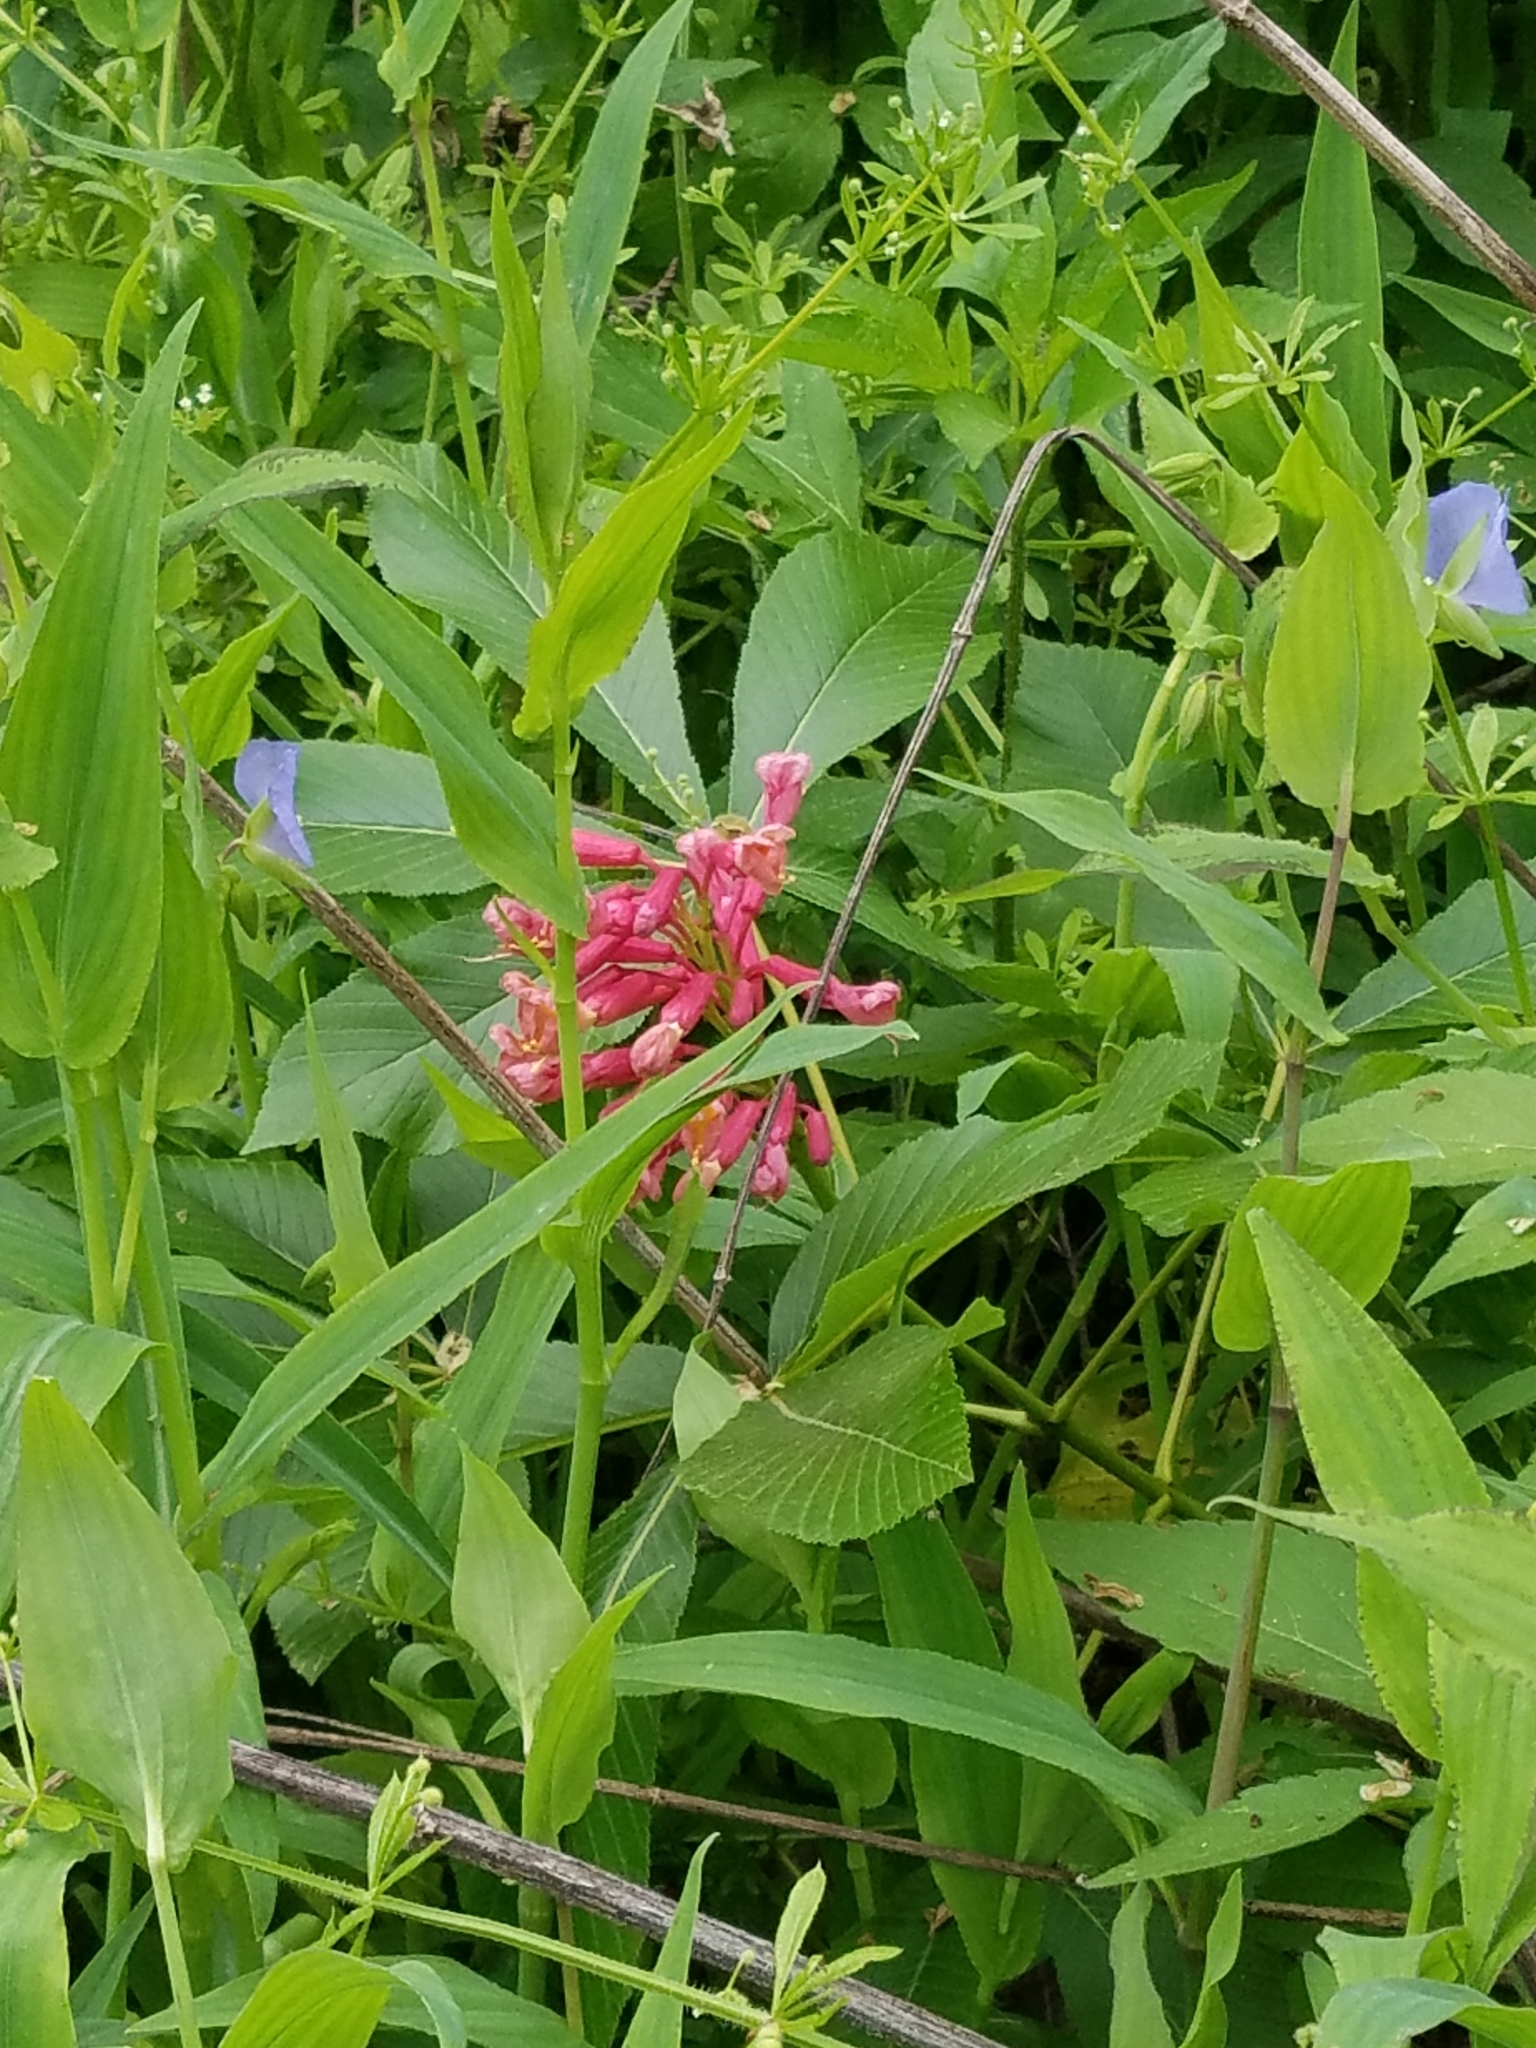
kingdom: Plantae
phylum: Tracheophyta
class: Magnoliopsida
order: Sapindales
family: Sapindaceae
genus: Aesculus
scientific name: Aesculus pavia
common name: Red buckeye
